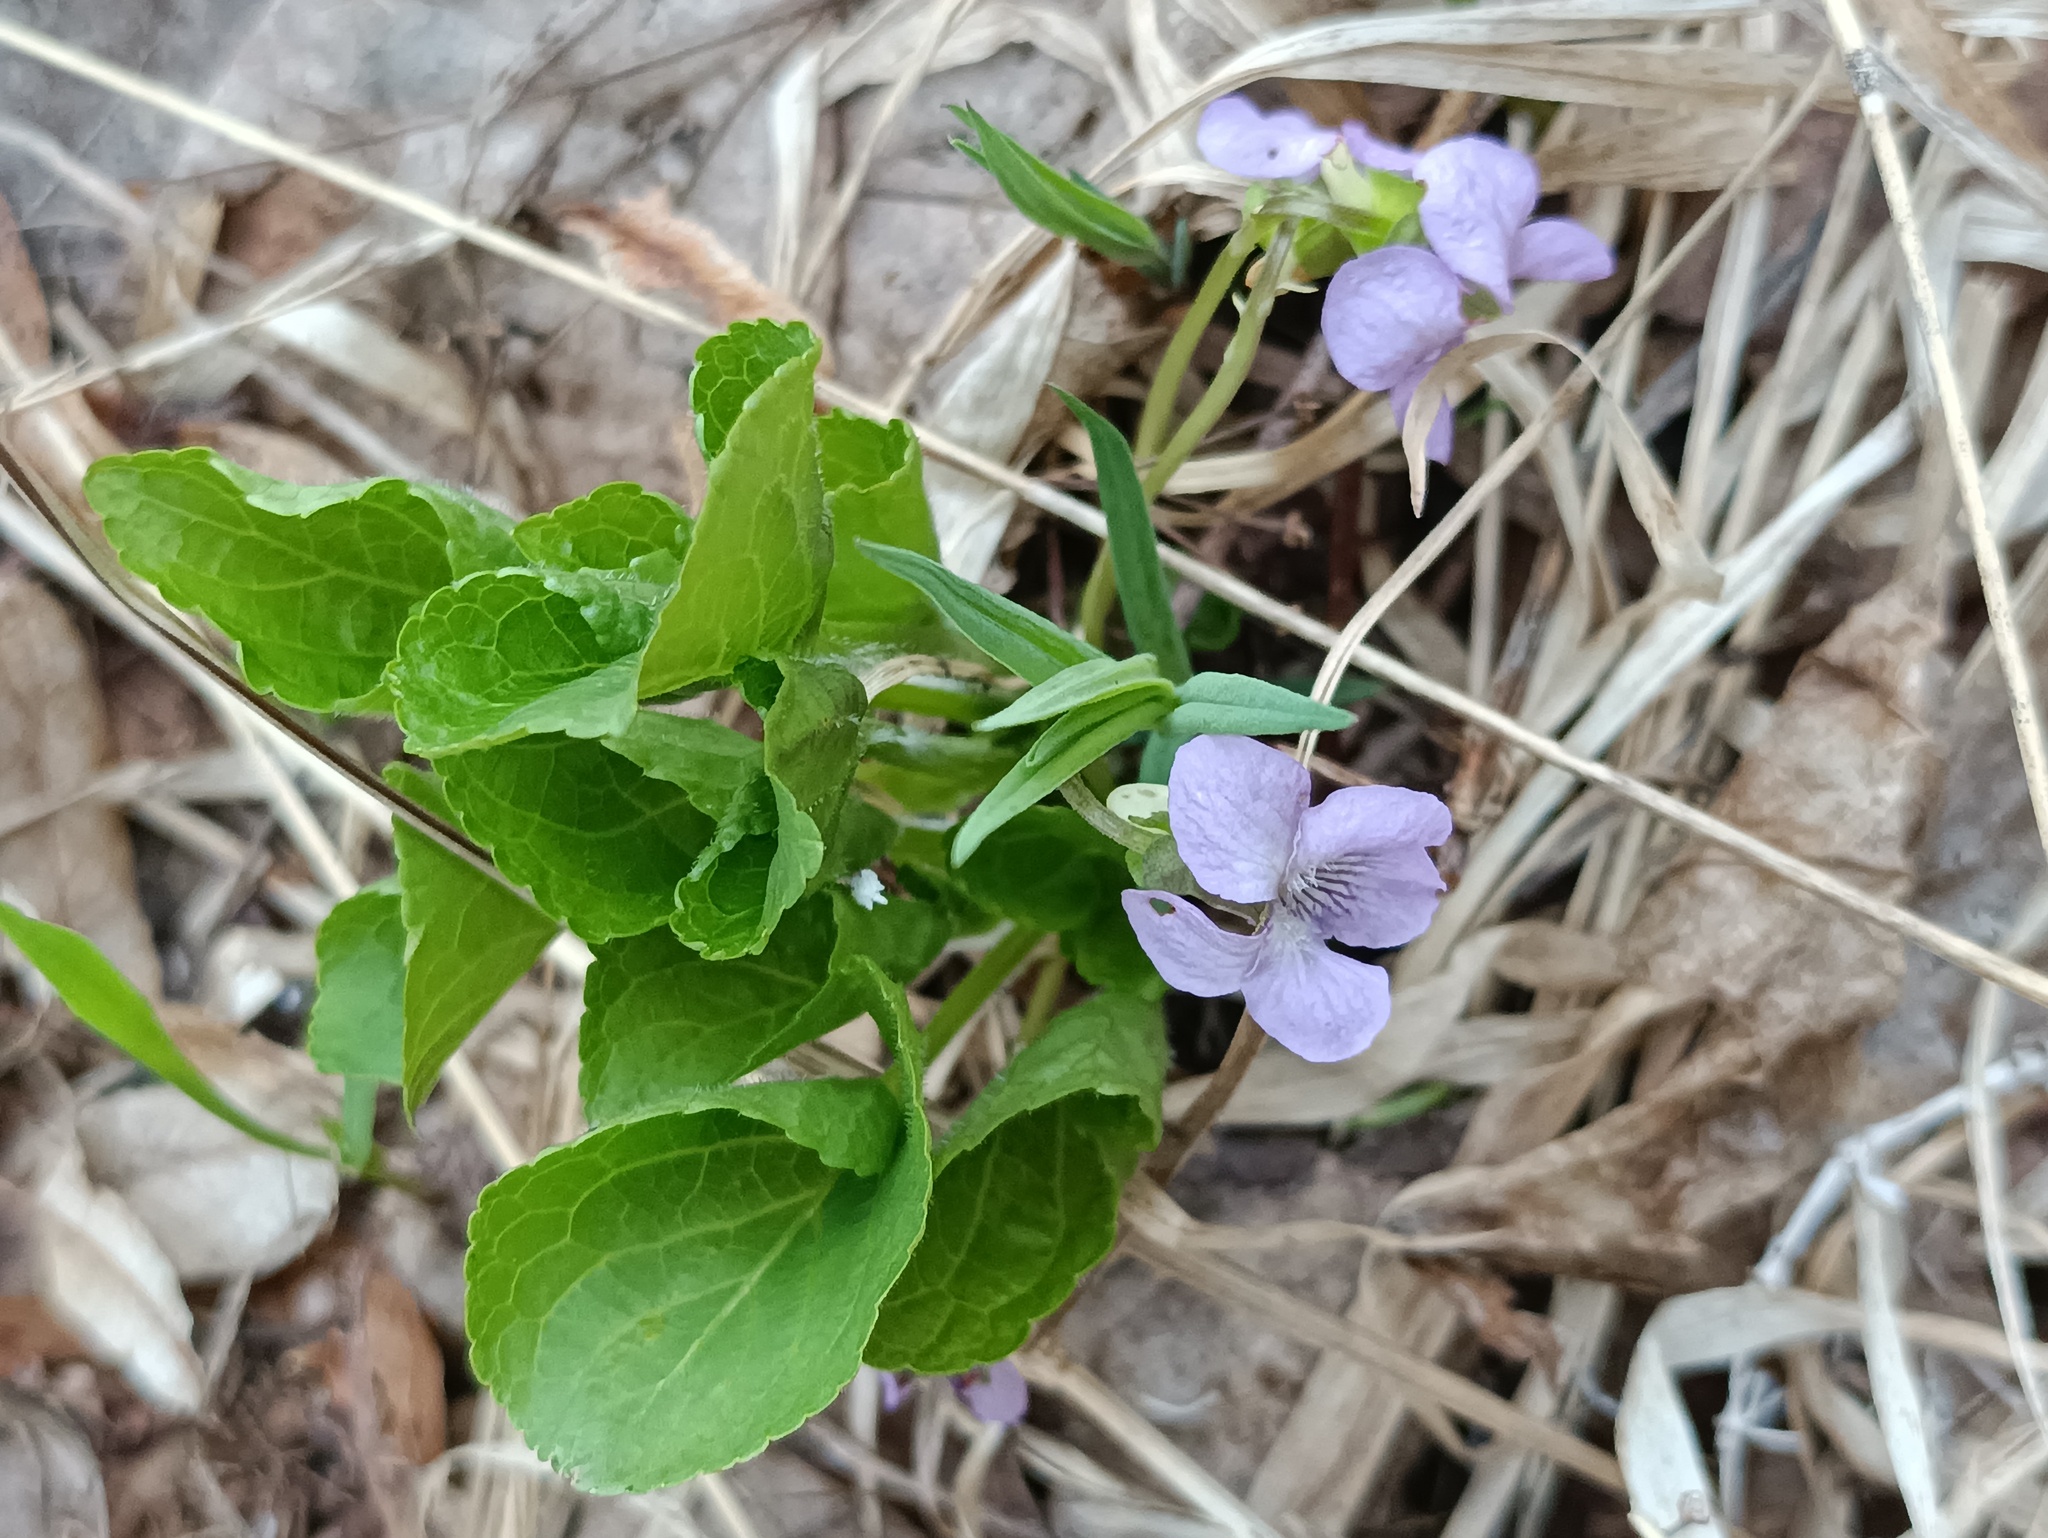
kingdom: Plantae
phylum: Tracheophyta
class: Magnoliopsida
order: Malpighiales
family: Violaceae
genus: Viola
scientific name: Viola mirabilis
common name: Wonder violet
